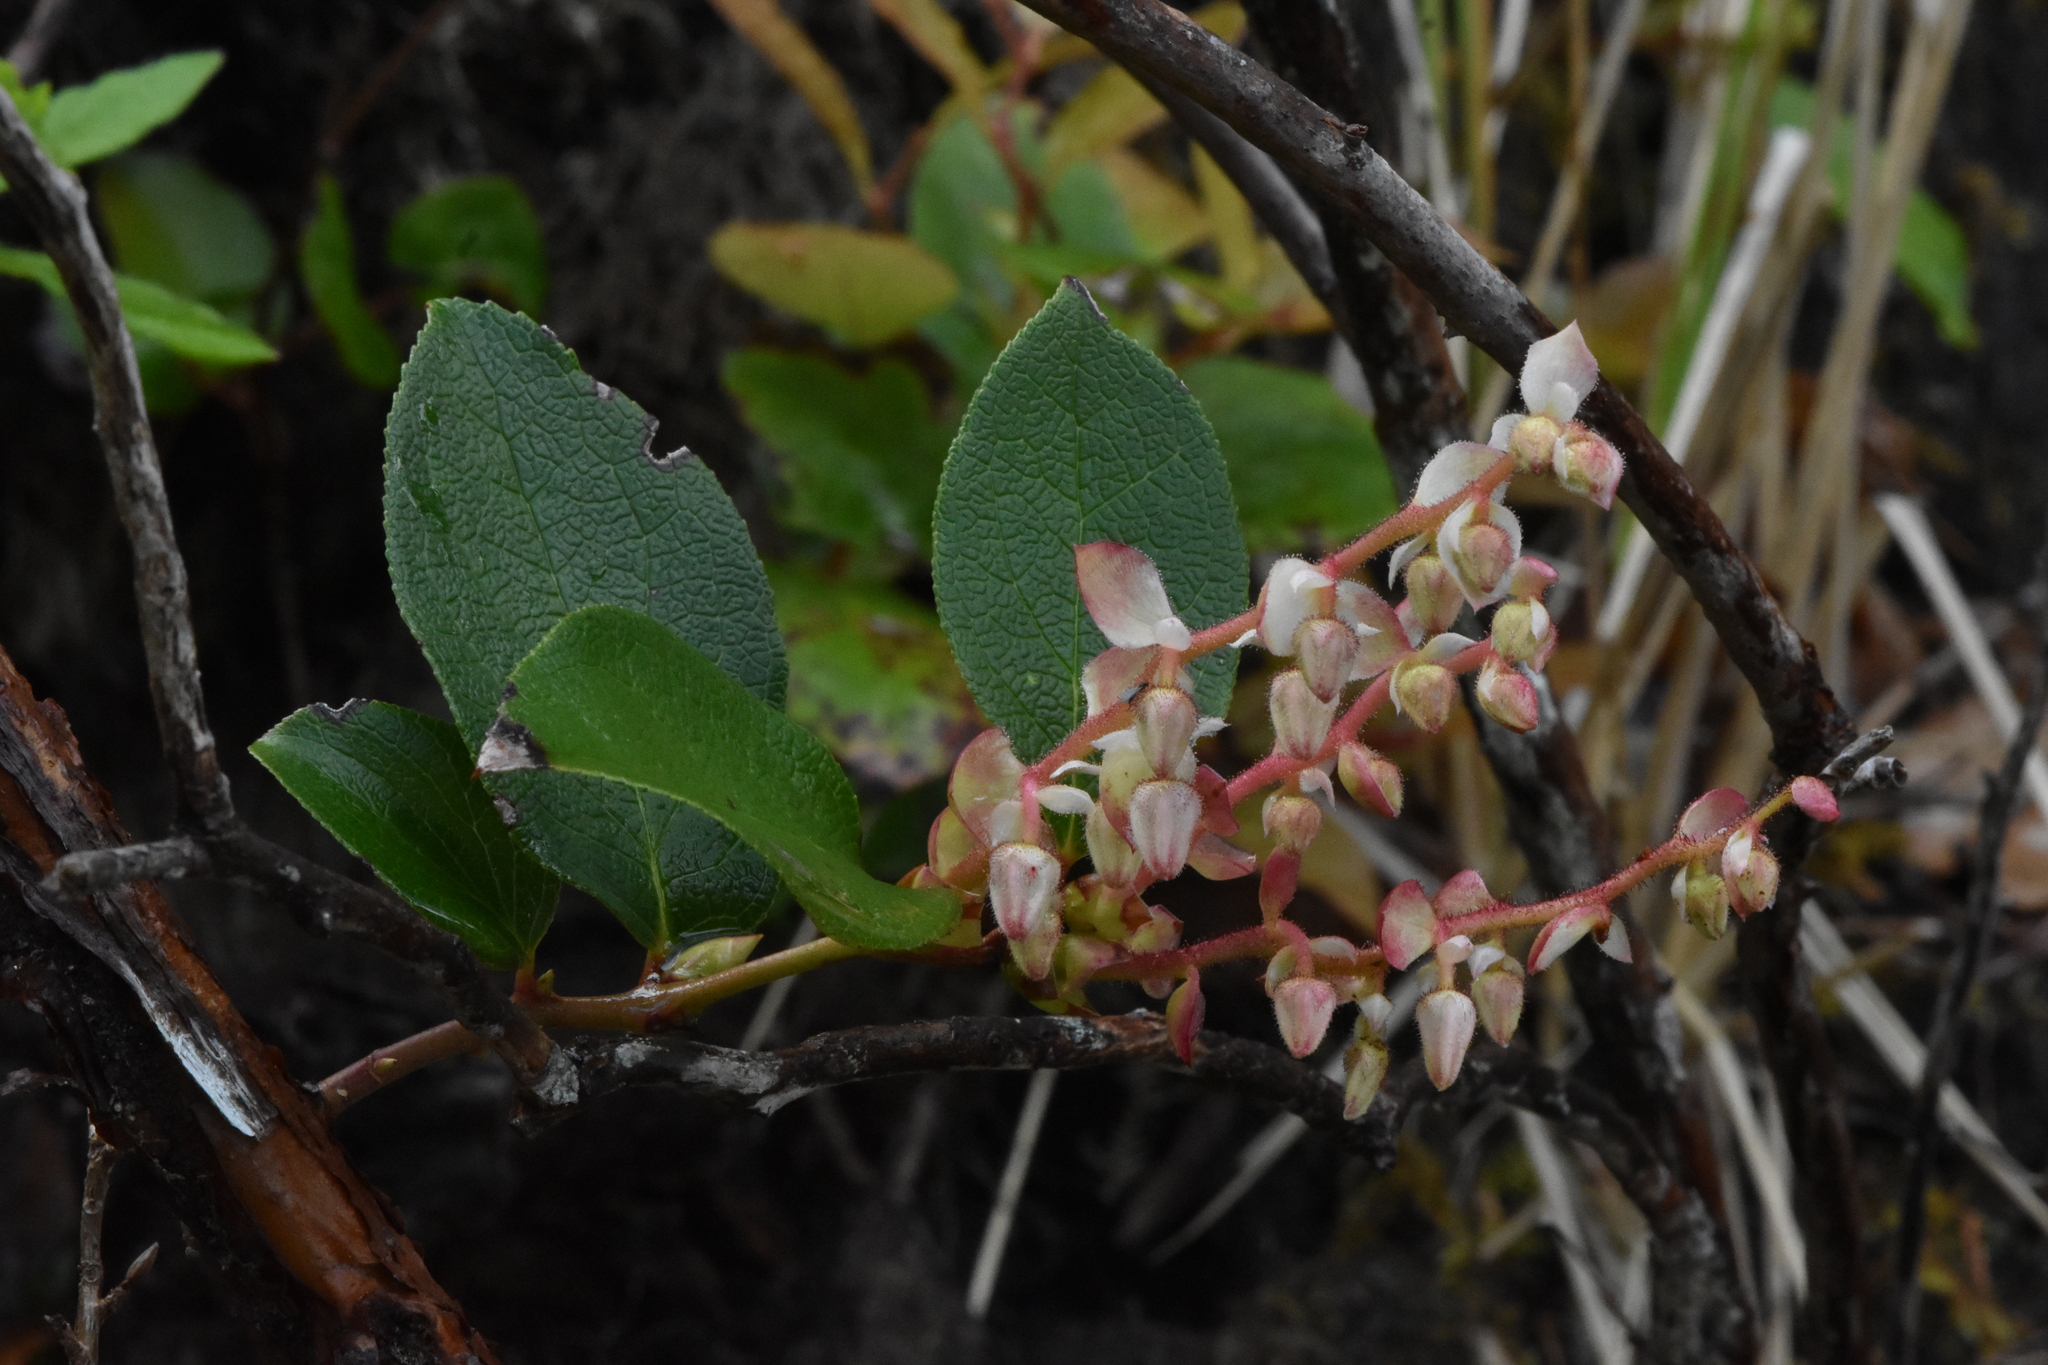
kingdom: Plantae
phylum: Tracheophyta
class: Magnoliopsida
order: Ericales
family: Ericaceae
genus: Gaultheria
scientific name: Gaultheria shallon
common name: Shallon
